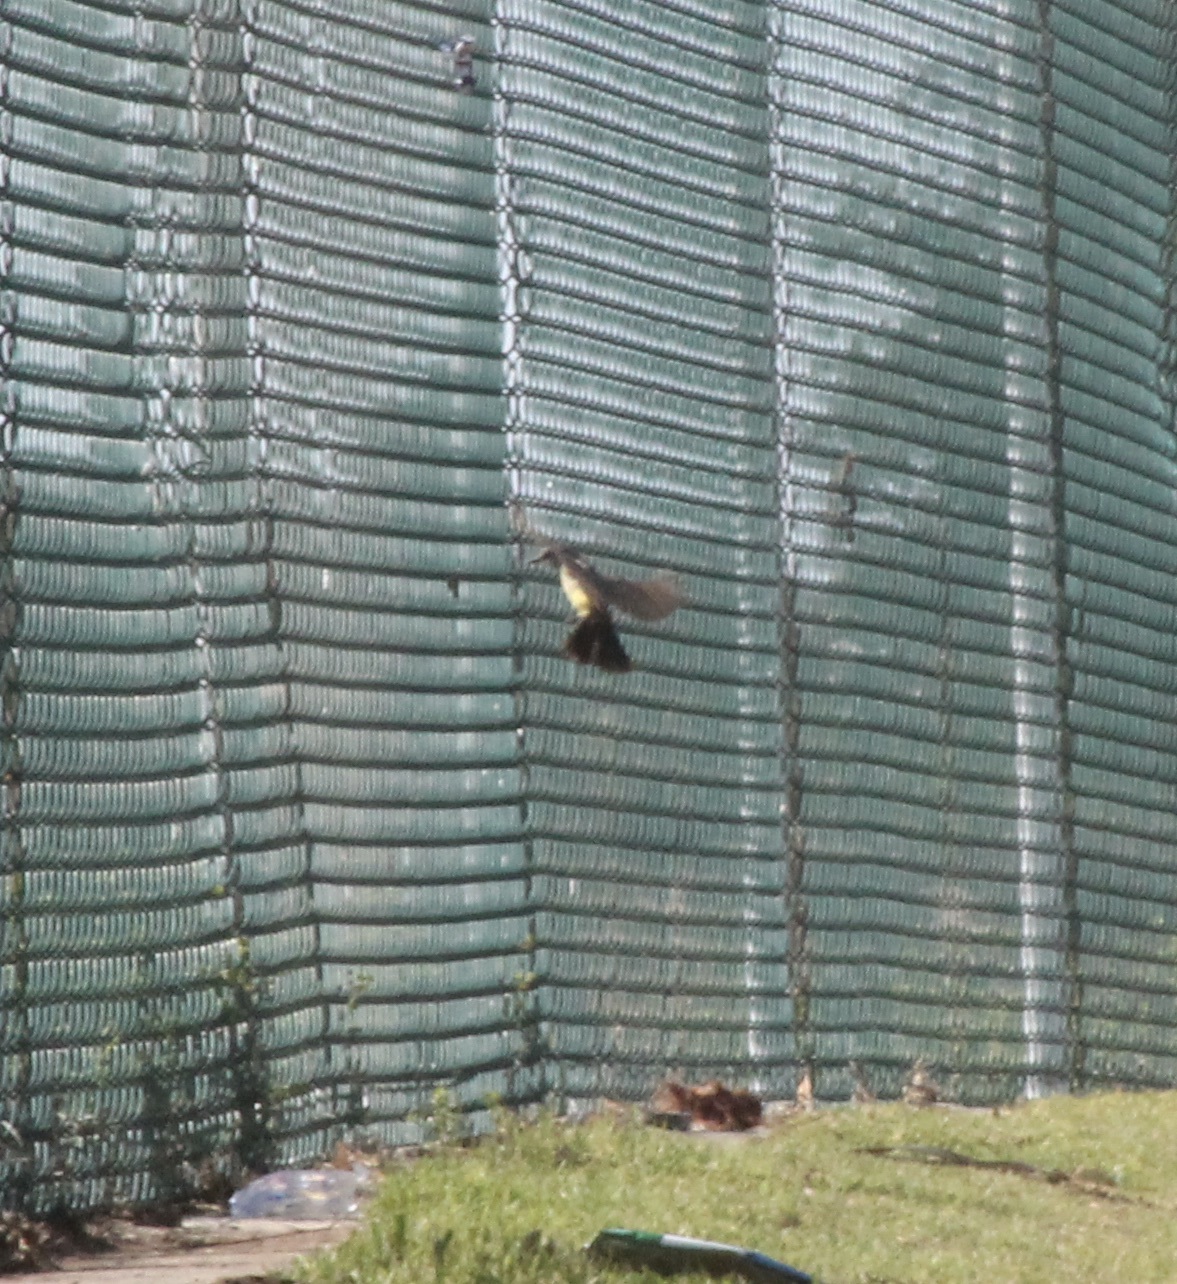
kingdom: Animalia
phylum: Chordata
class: Aves
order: Passeriformes
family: Tyrannidae
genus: Tyrannus
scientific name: Tyrannus
